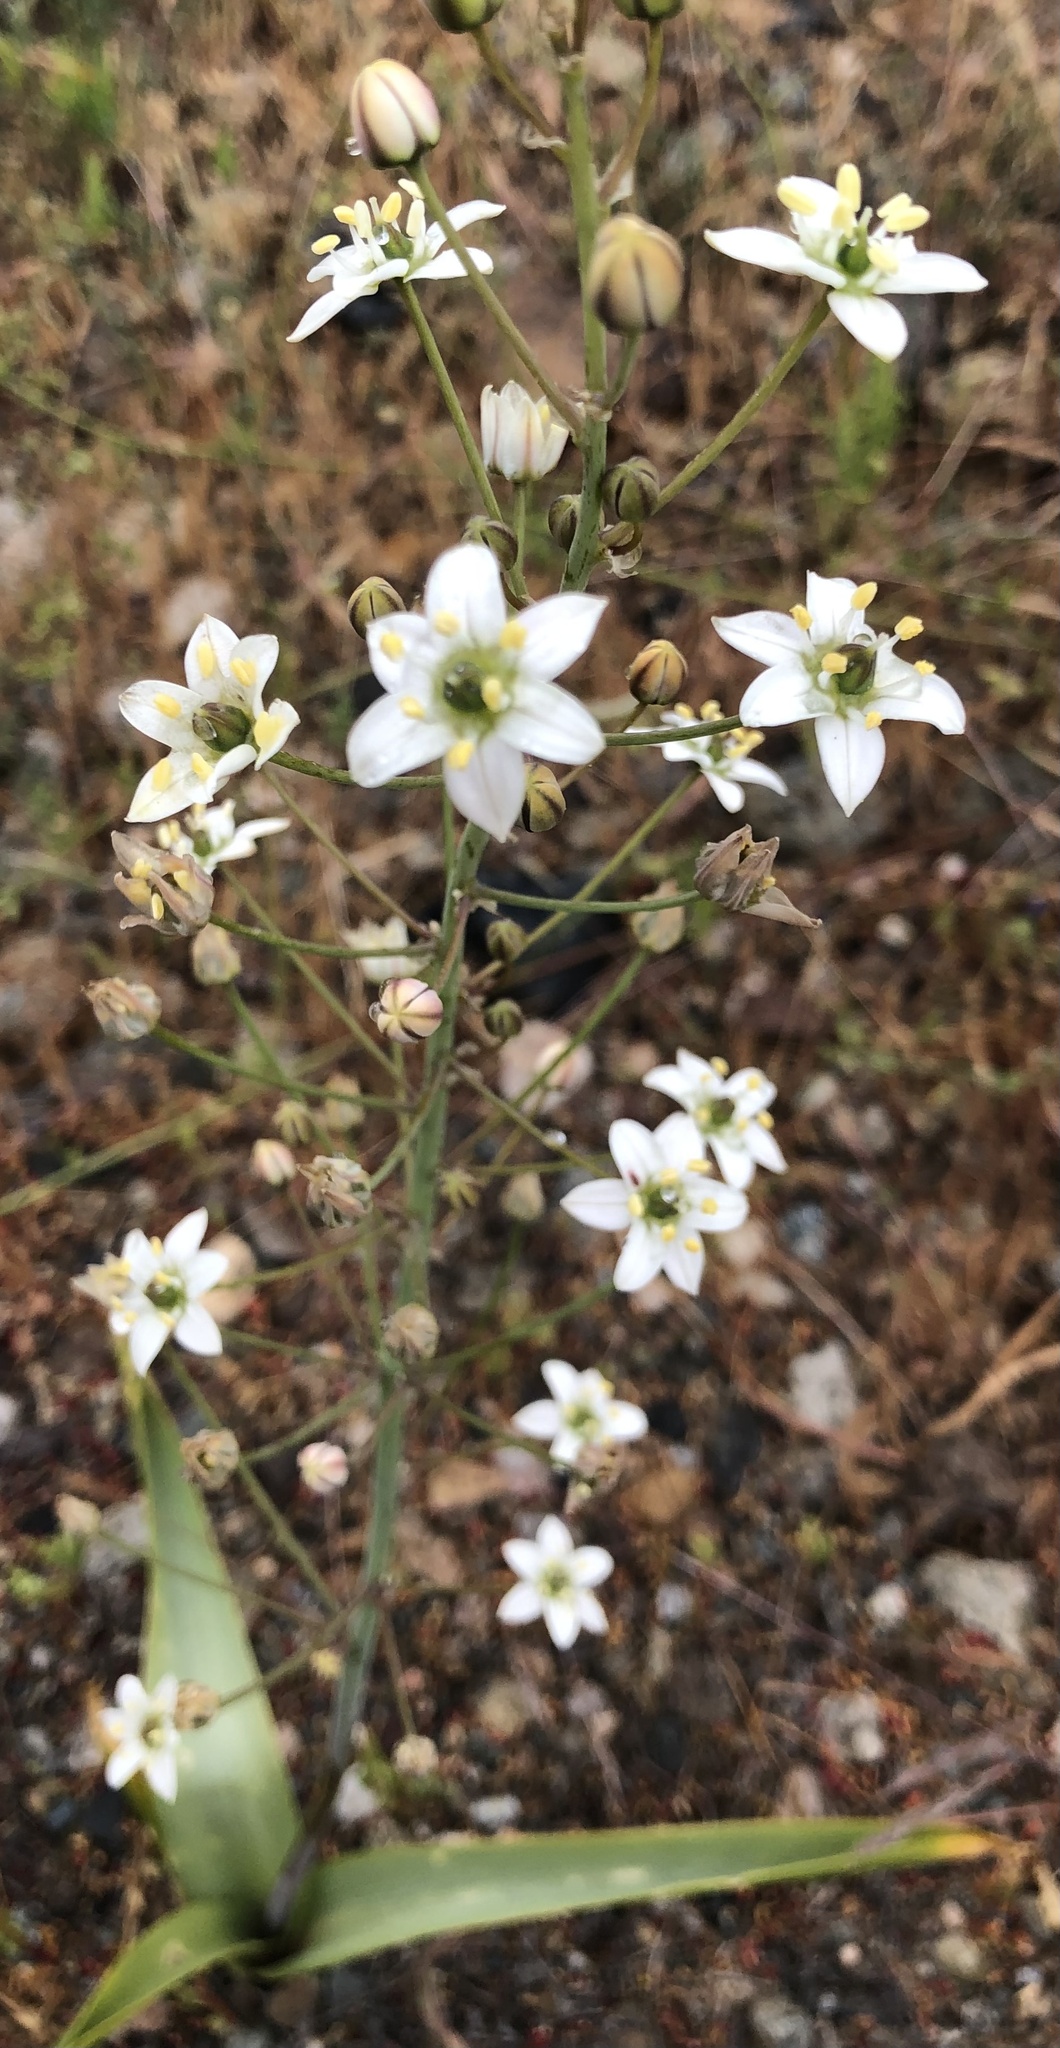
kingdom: Plantae
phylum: Tracheophyta
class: Liliopsida
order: Asparagales
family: Asparagaceae
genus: Oziroe
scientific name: Oziroe biflora
